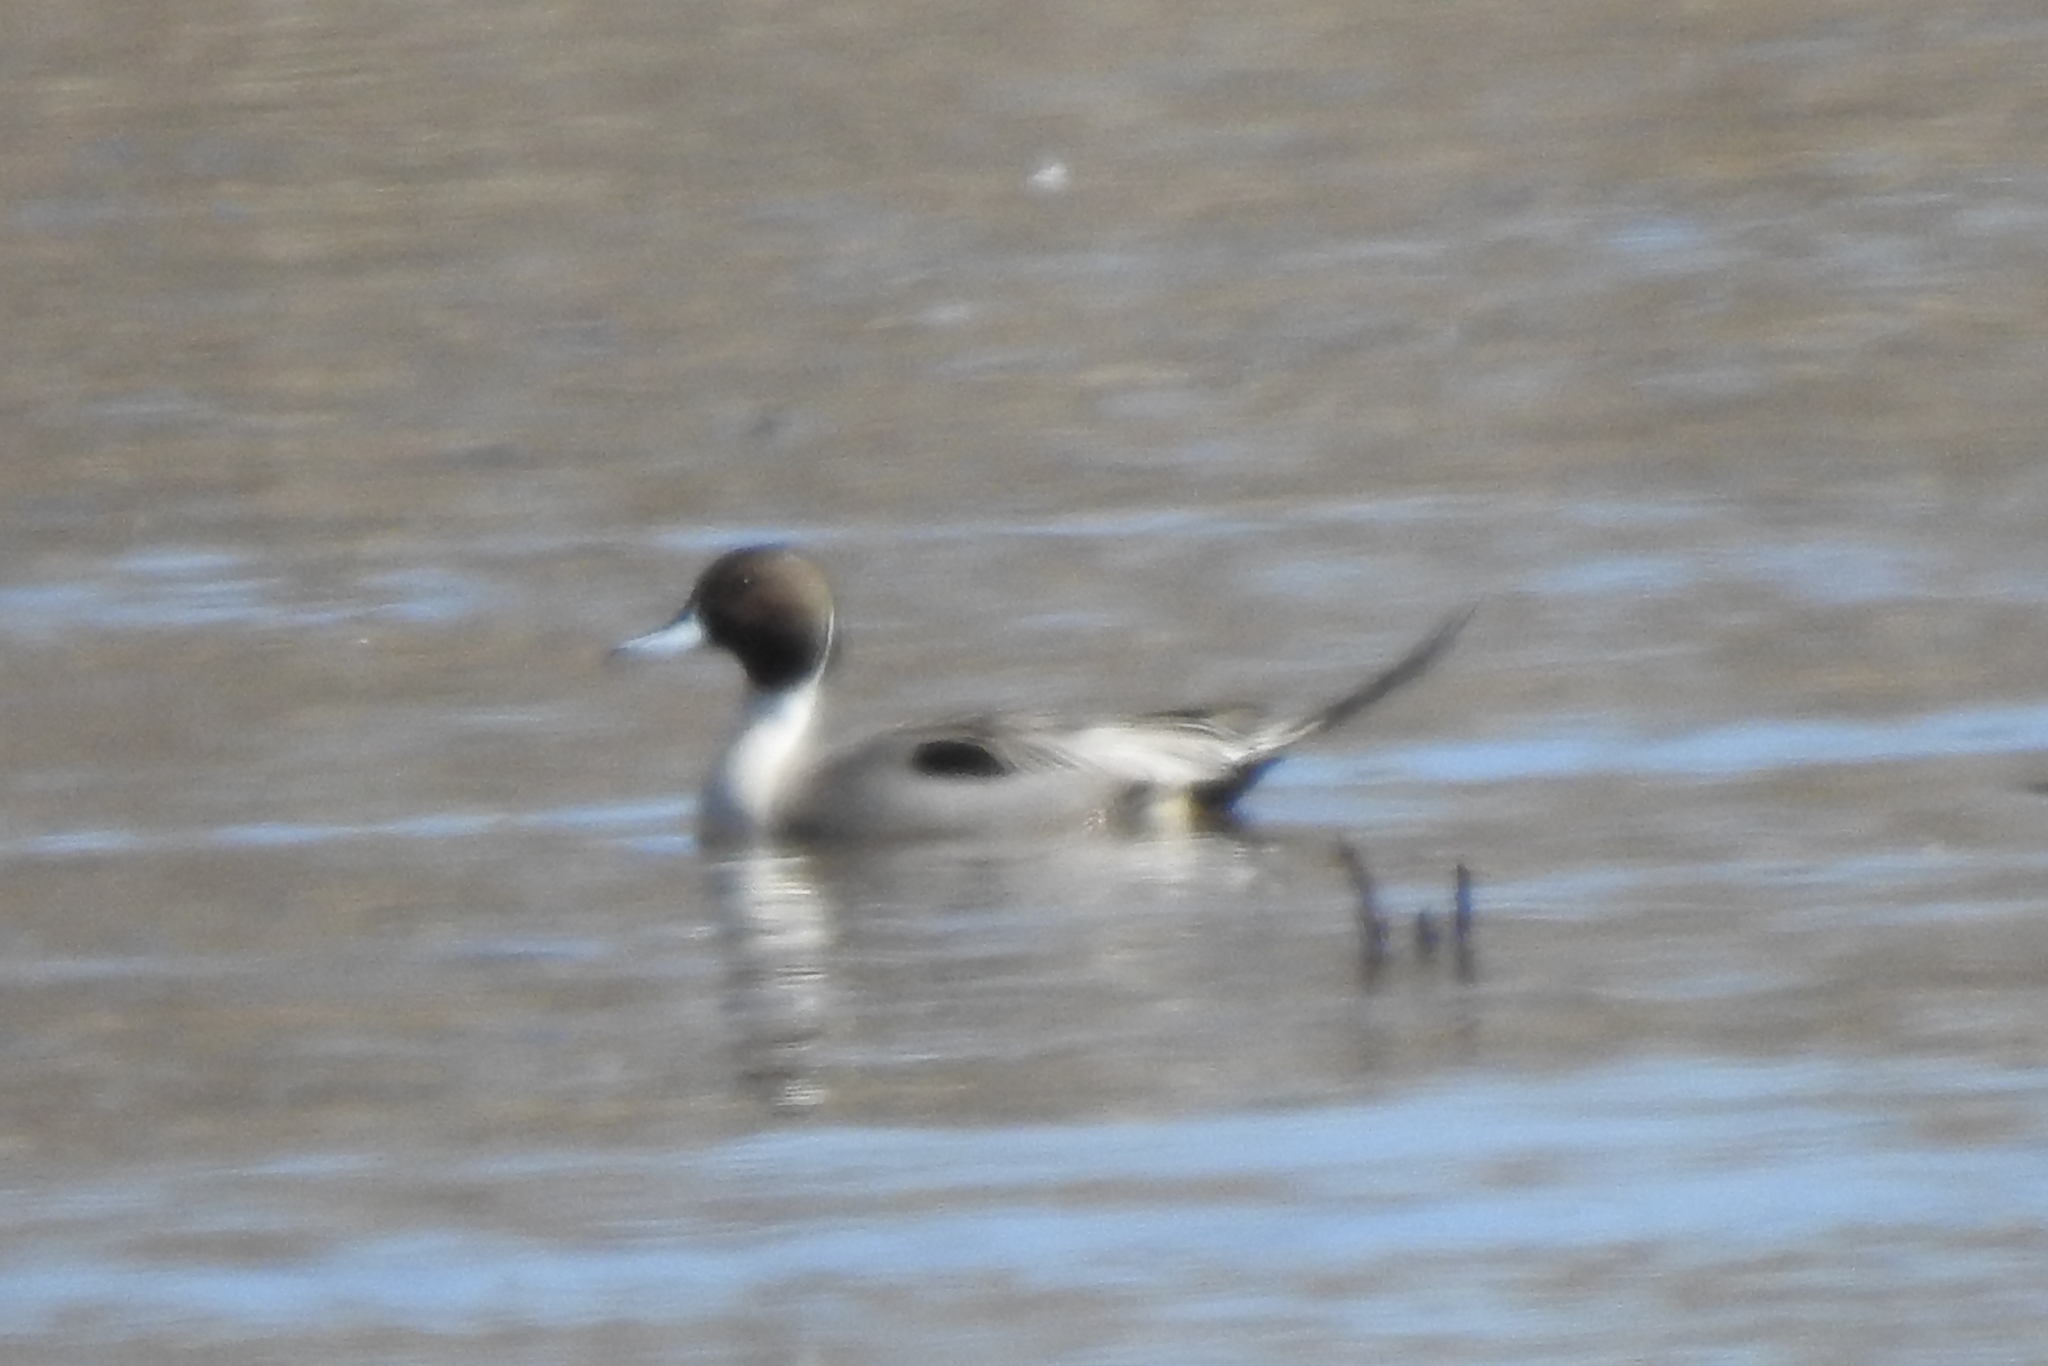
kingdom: Animalia
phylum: Chordata
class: Aves
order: Anseriformes
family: Anatidae
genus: Anas
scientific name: Anas acuta
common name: Northern pintail
